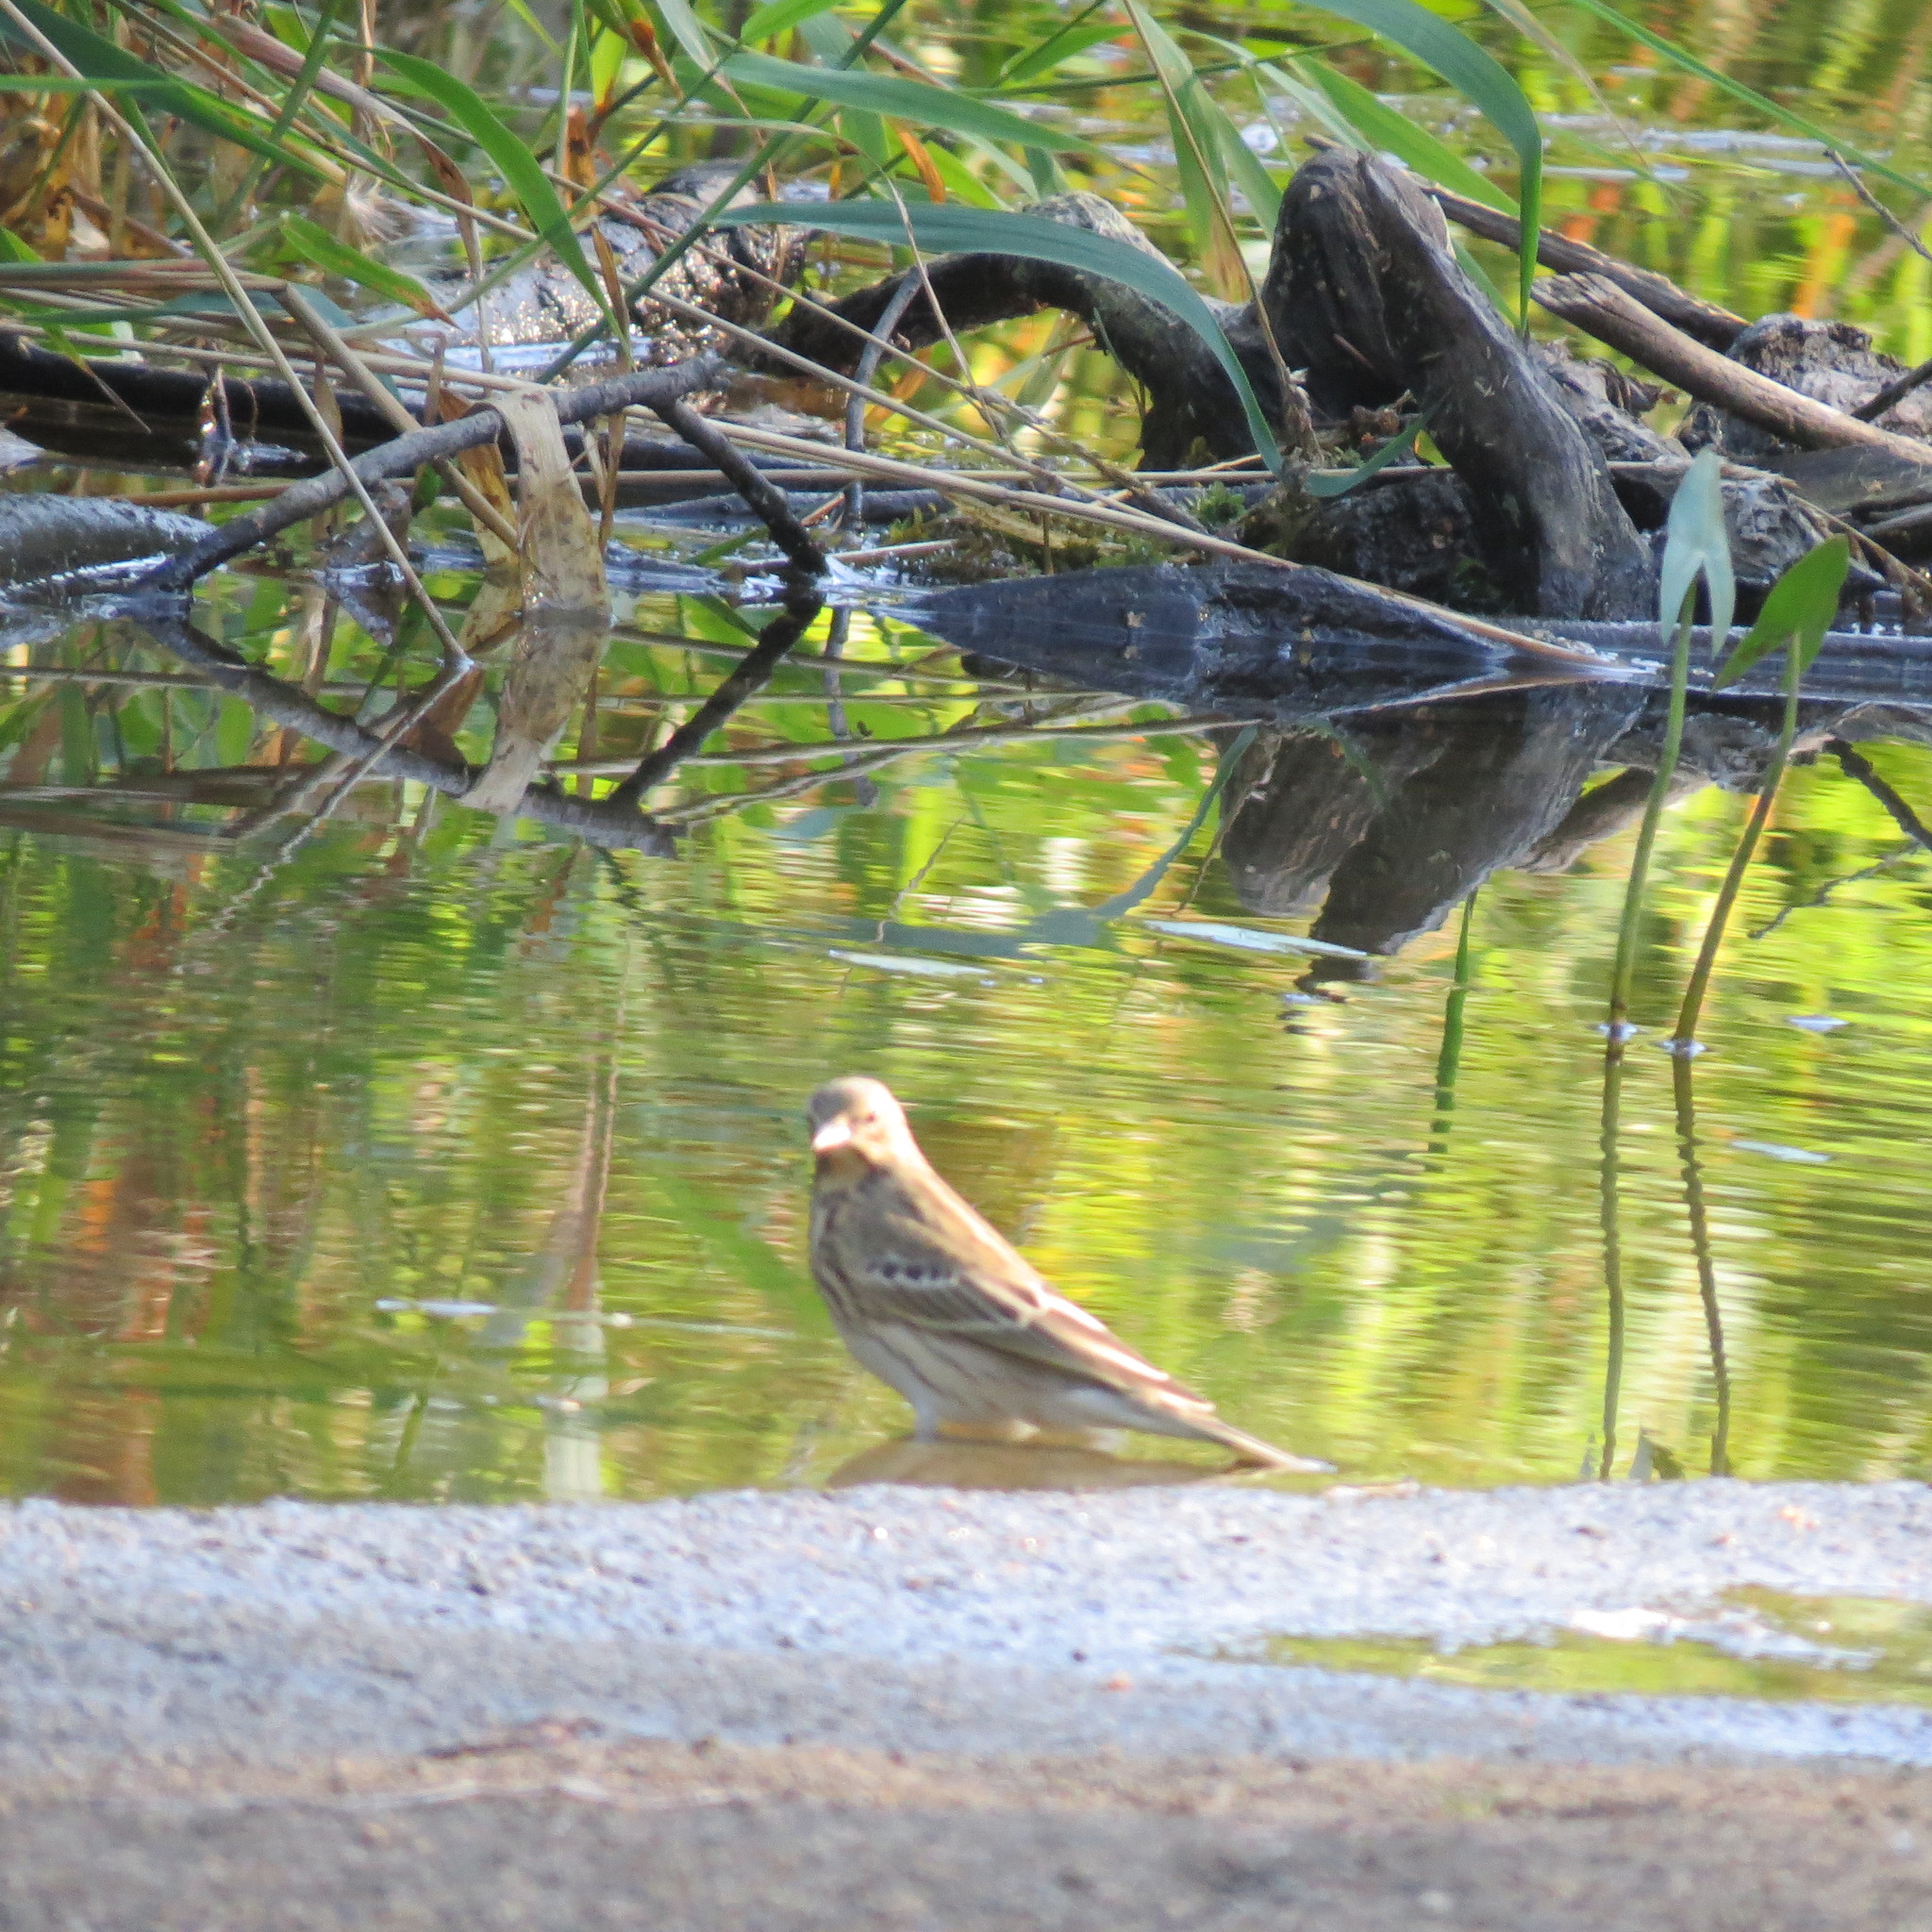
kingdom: Animalia
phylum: Chordata
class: Aves
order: Passeriformes
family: Motacillidae
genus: Anthus
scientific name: Anthus trivialis
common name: Tree pipit
